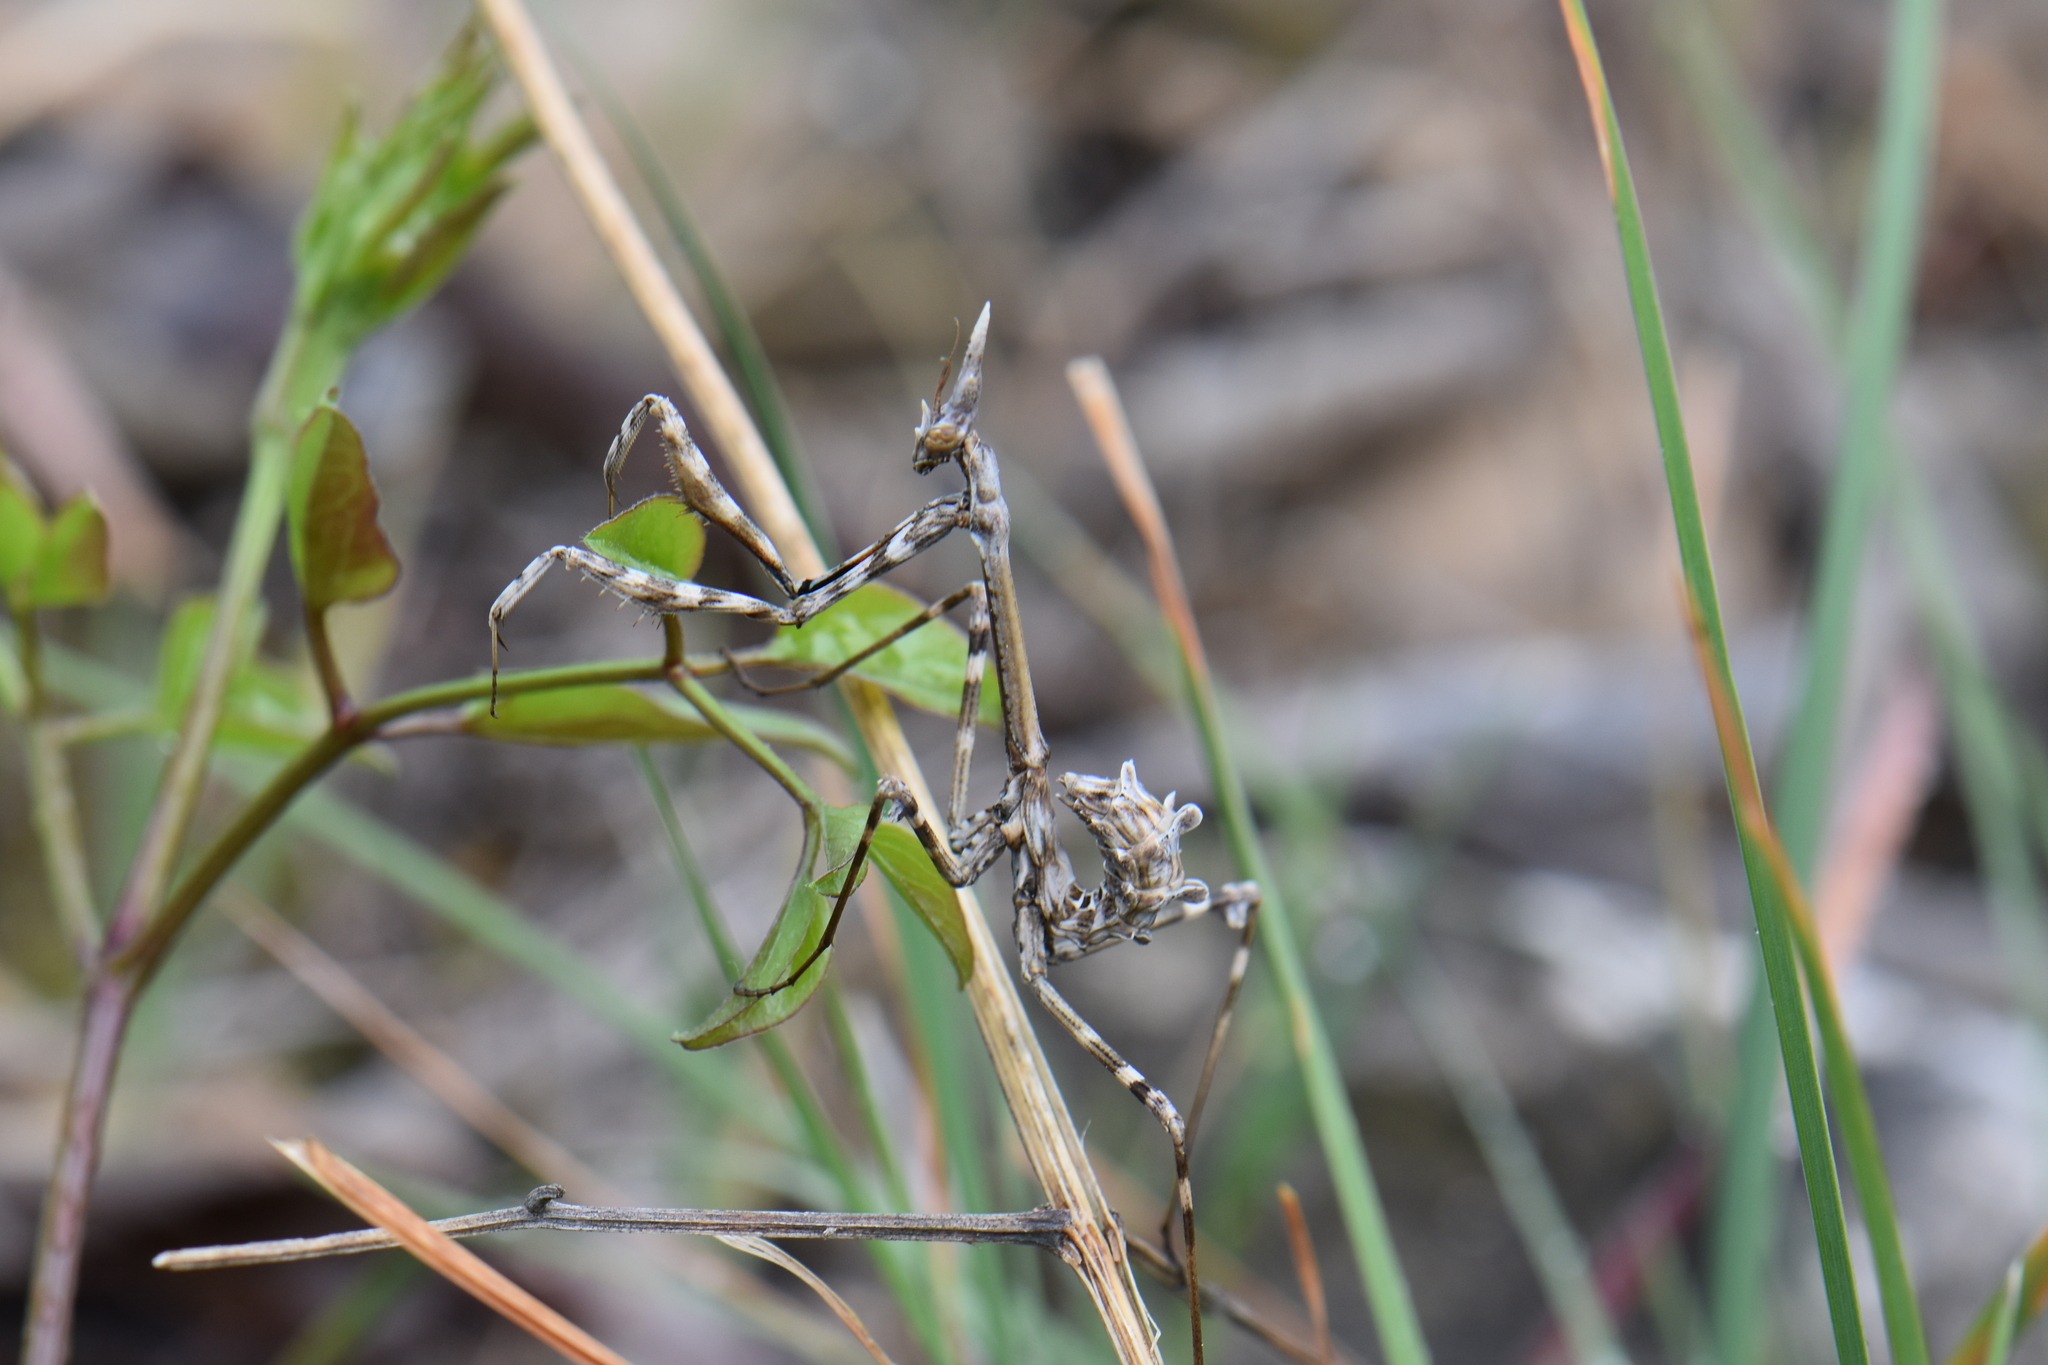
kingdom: Animalia
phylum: Arthropoda
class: Insecta
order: Mantodea
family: Empusidae
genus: Empusa
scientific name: Empusa pennata
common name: Conehead mantis
